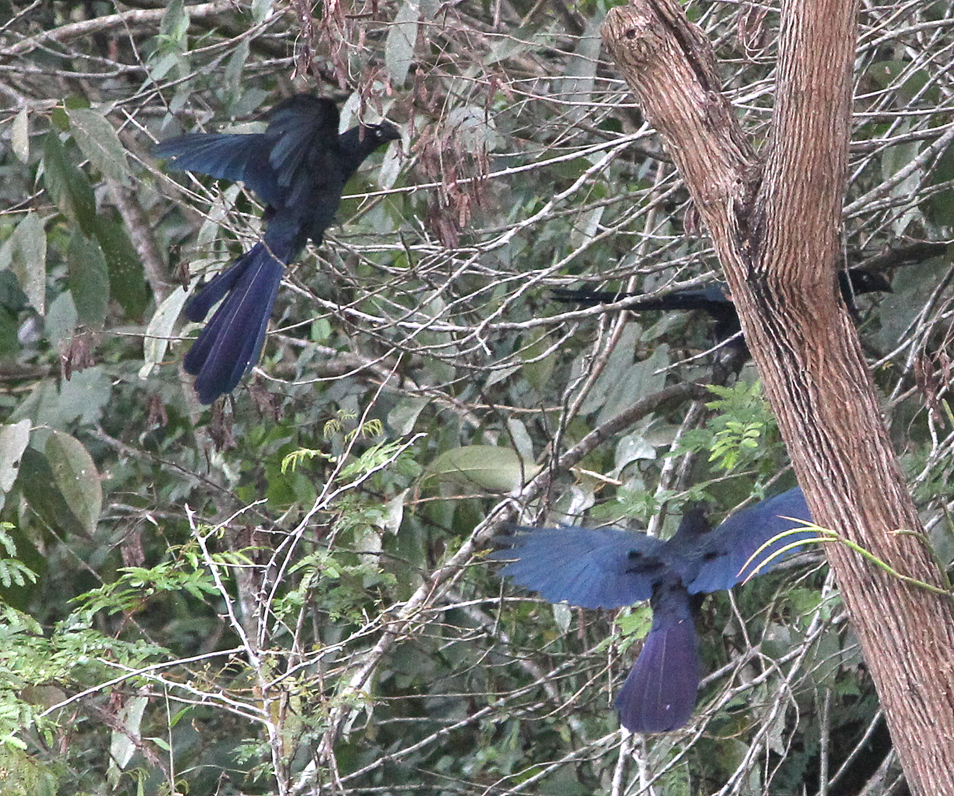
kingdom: Animalia
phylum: Chordata
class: Aves
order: Cuculiformes
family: Cuculidae
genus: Crotophaga
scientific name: Crotophaga major
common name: Greater ani
